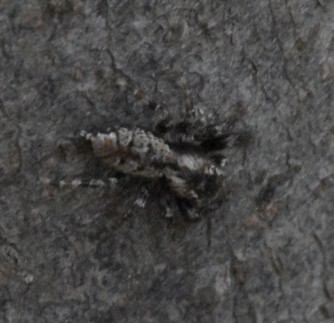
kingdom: Animalia
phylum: Arthropoda
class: Arachnida
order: Araneae
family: Salticidae
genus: Marpissa
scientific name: Marpissa muscosa
